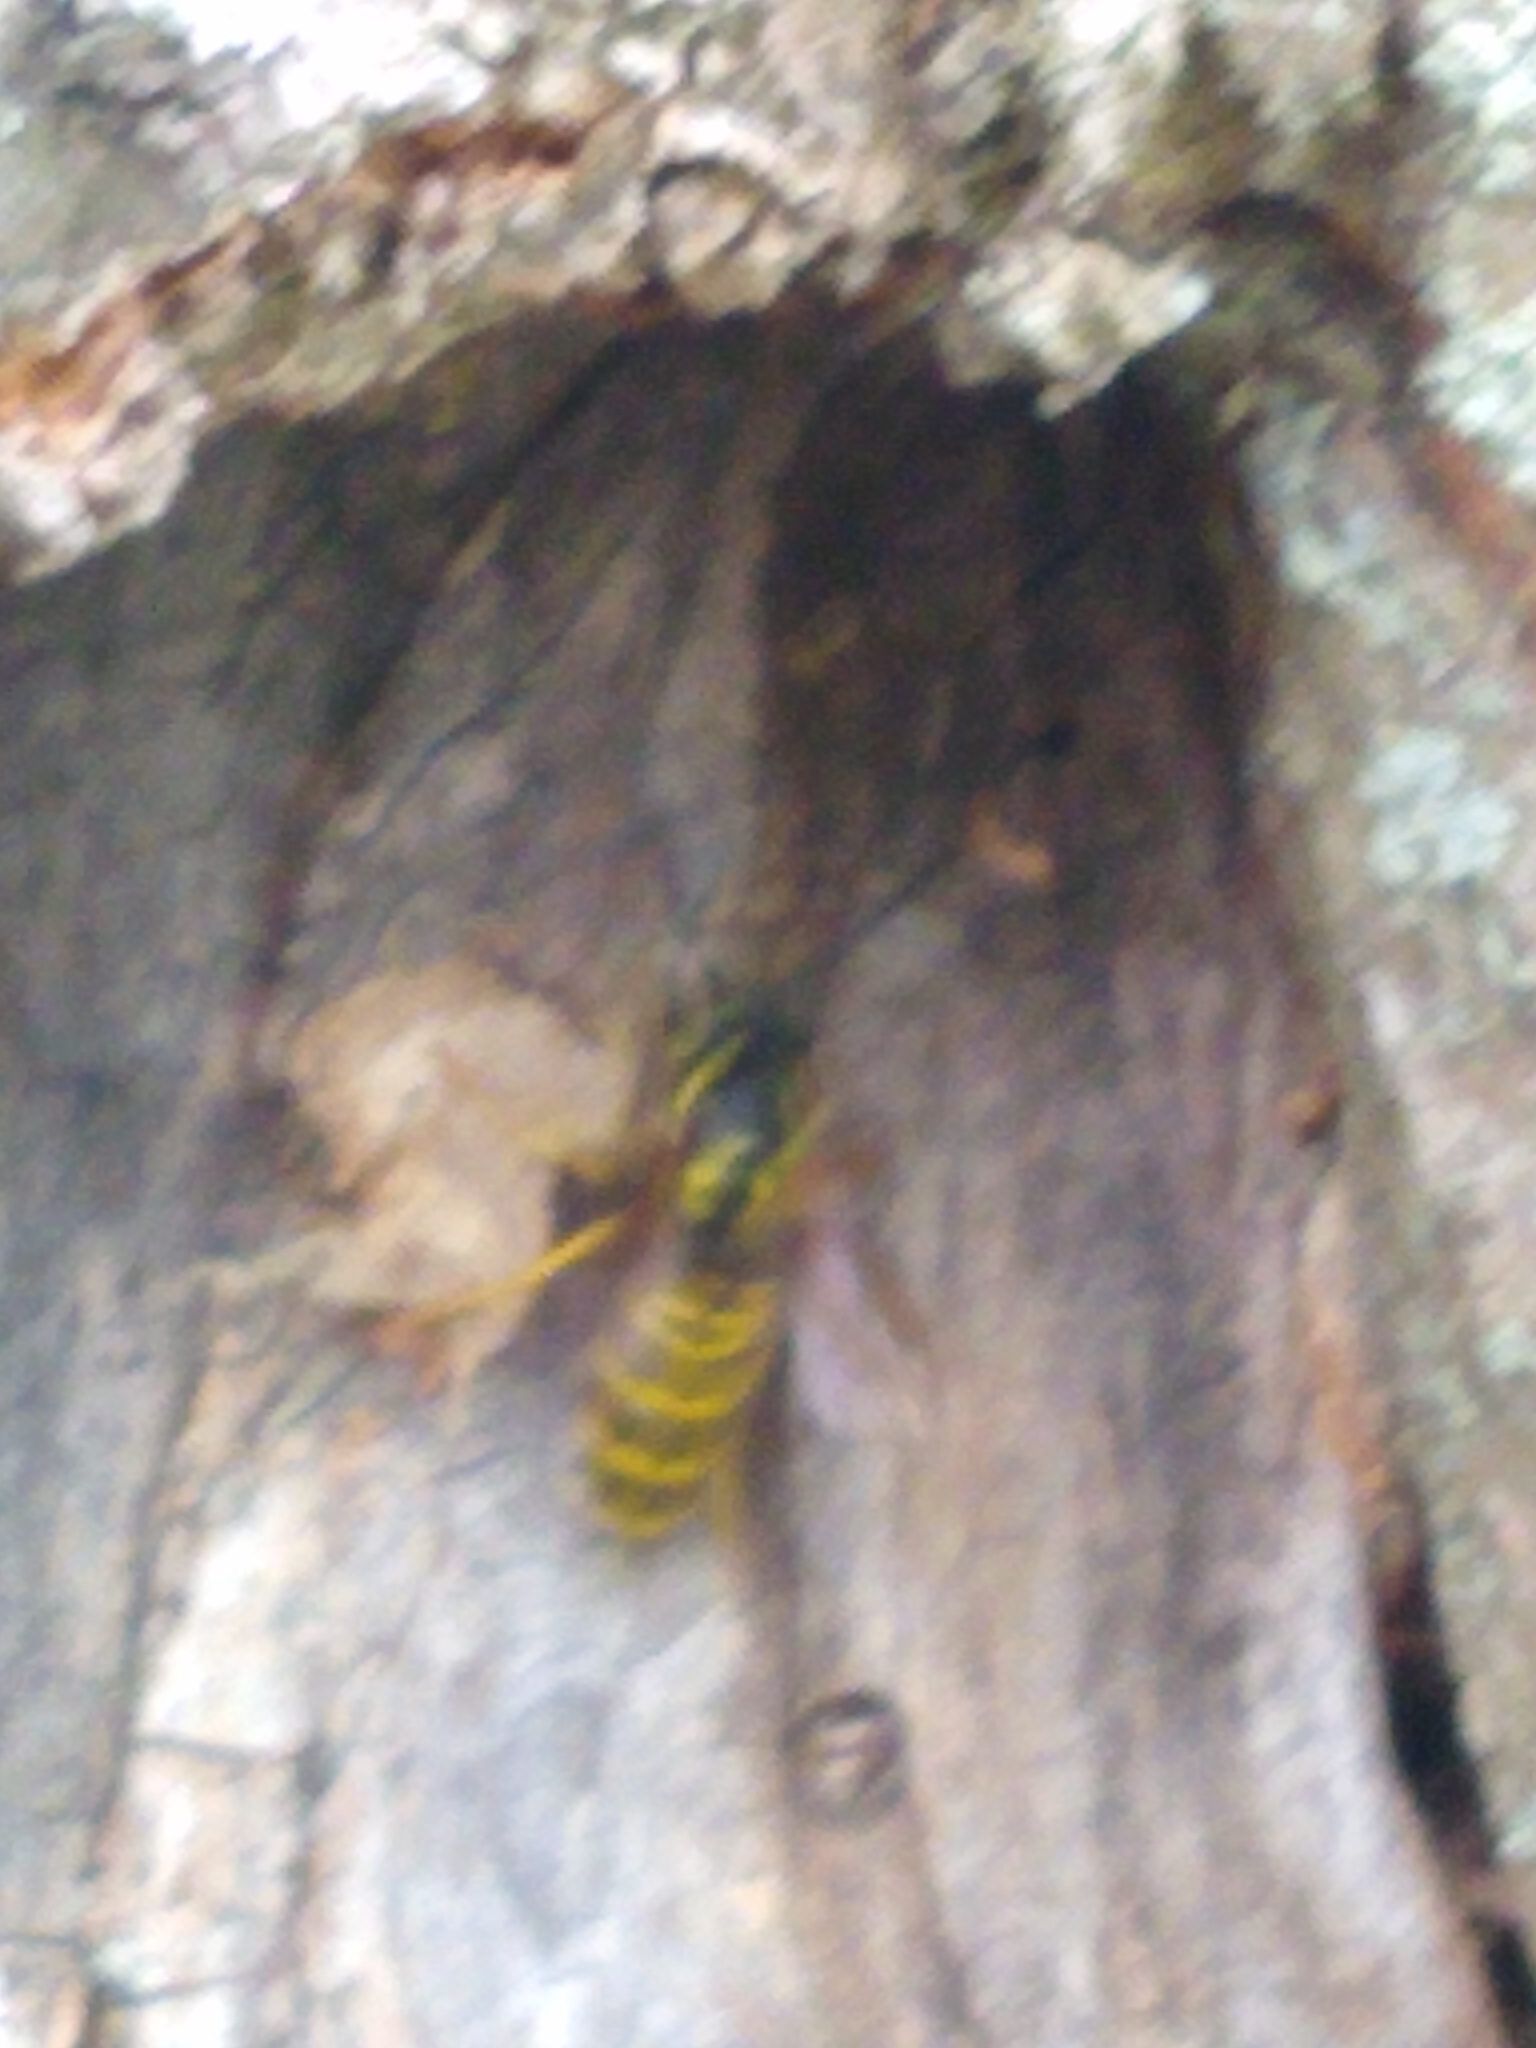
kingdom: Animalia
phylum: Arthropoda
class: Insecta
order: Hymenoptera
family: Vespidae
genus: Vespula
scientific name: Vespula maculifrons
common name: Eastern yellowjacket
